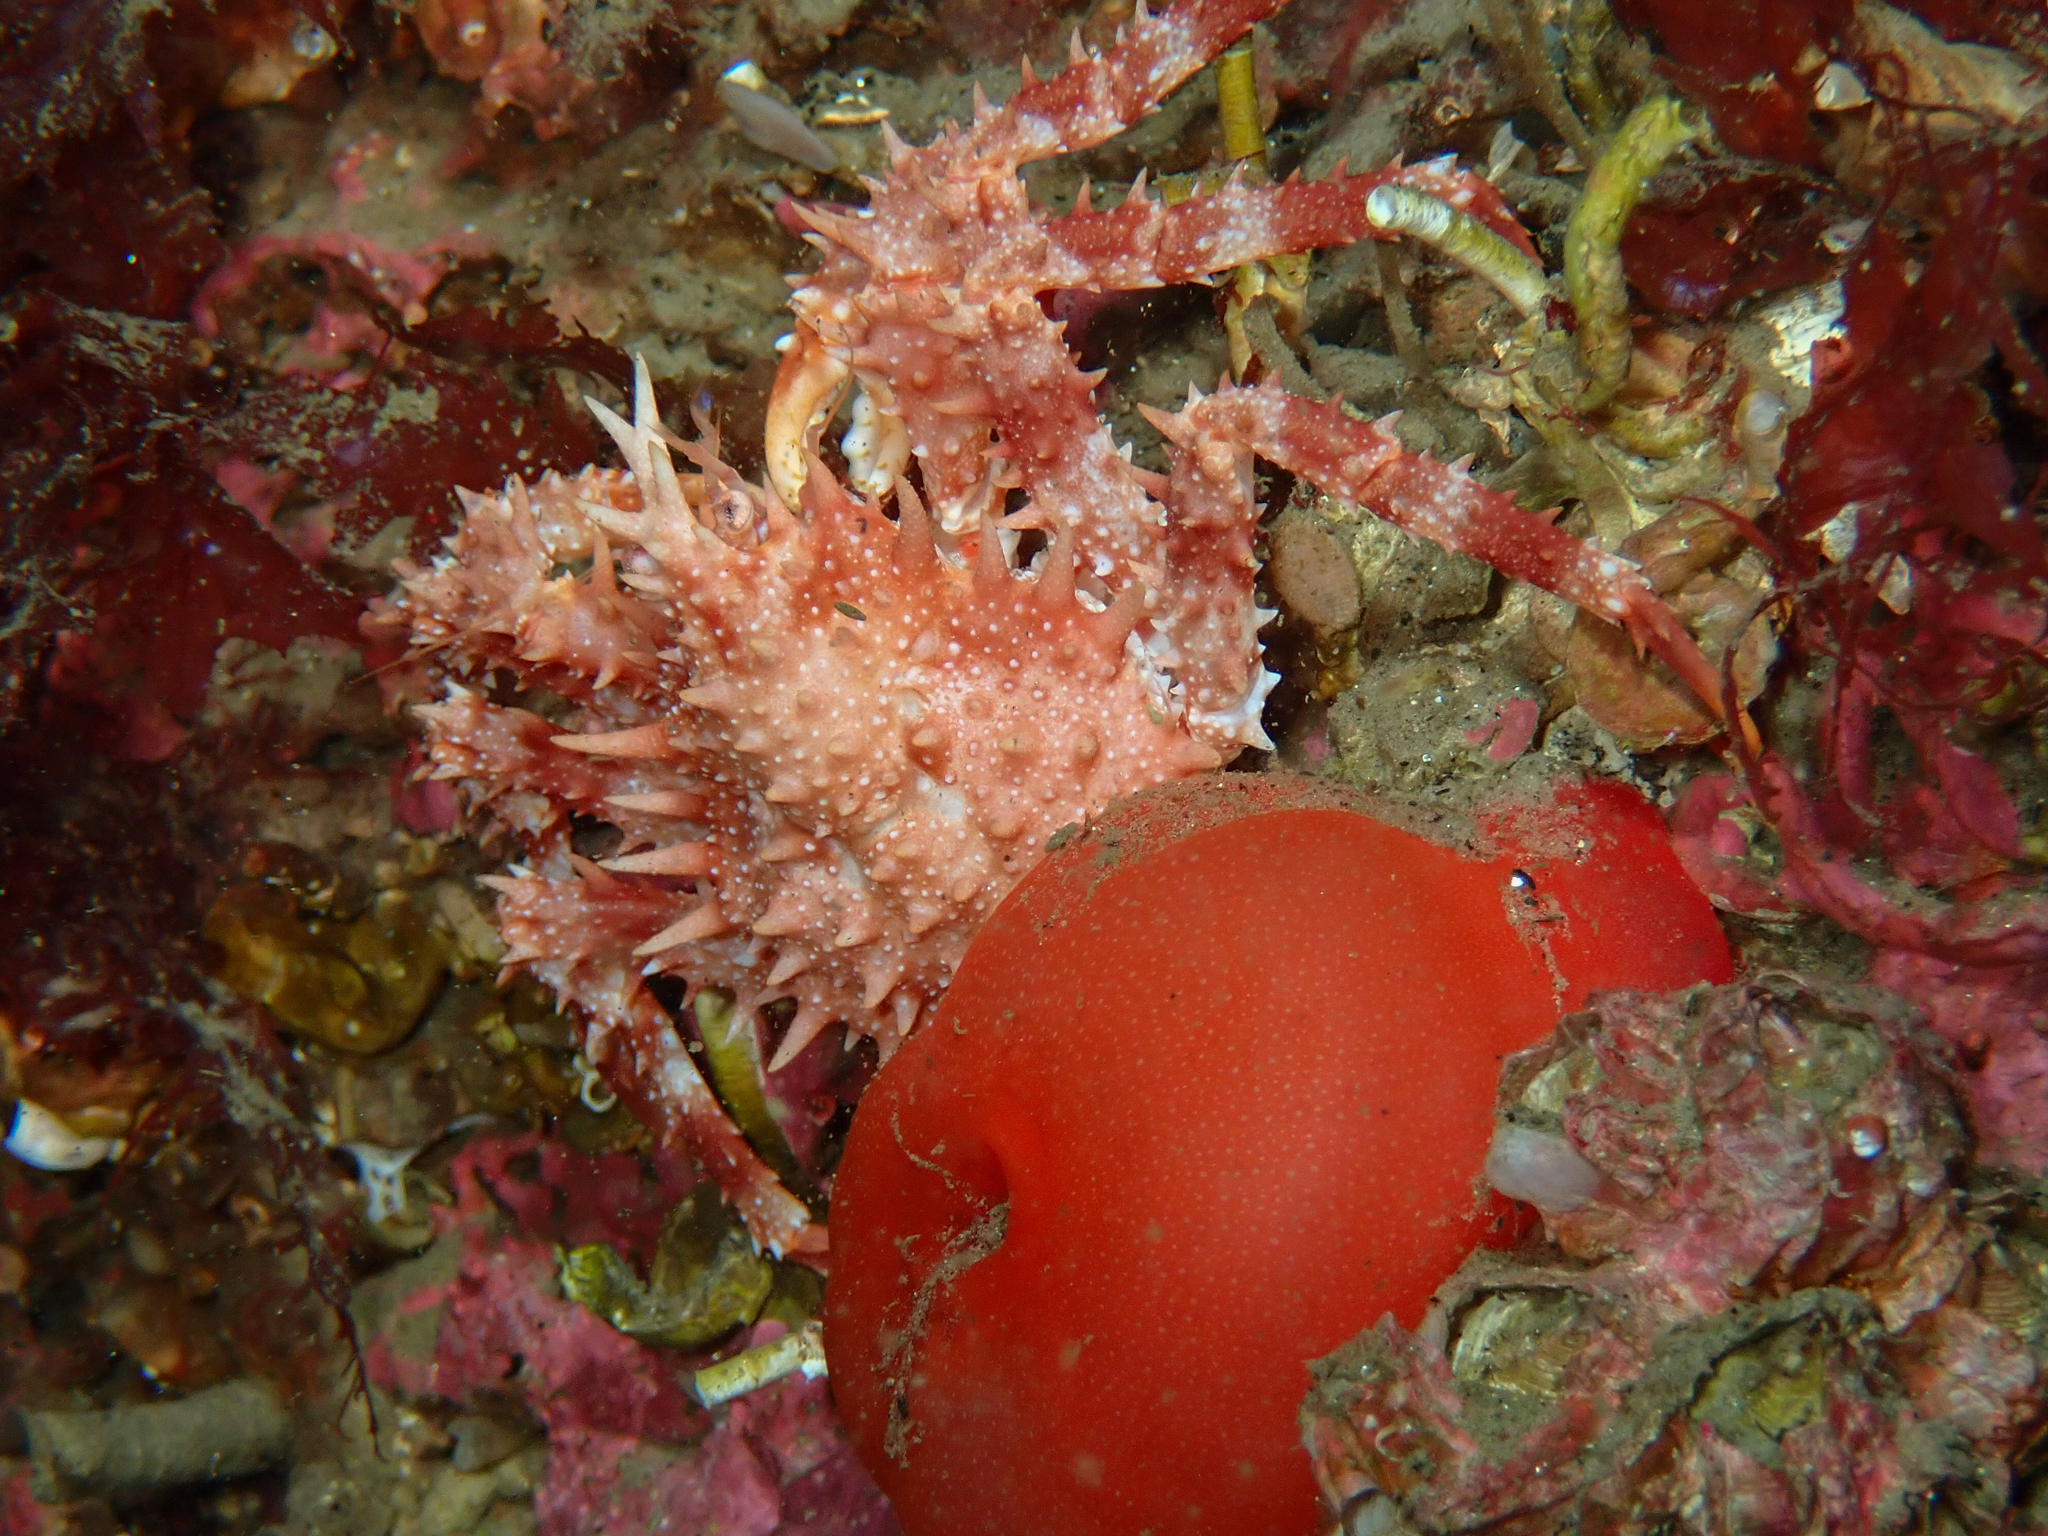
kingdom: Animalia
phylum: Arthropoda
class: Malacostraca
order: Decapoda
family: Lithodidae
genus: Lithodes
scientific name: Lithodes maja
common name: Northern stone crab
